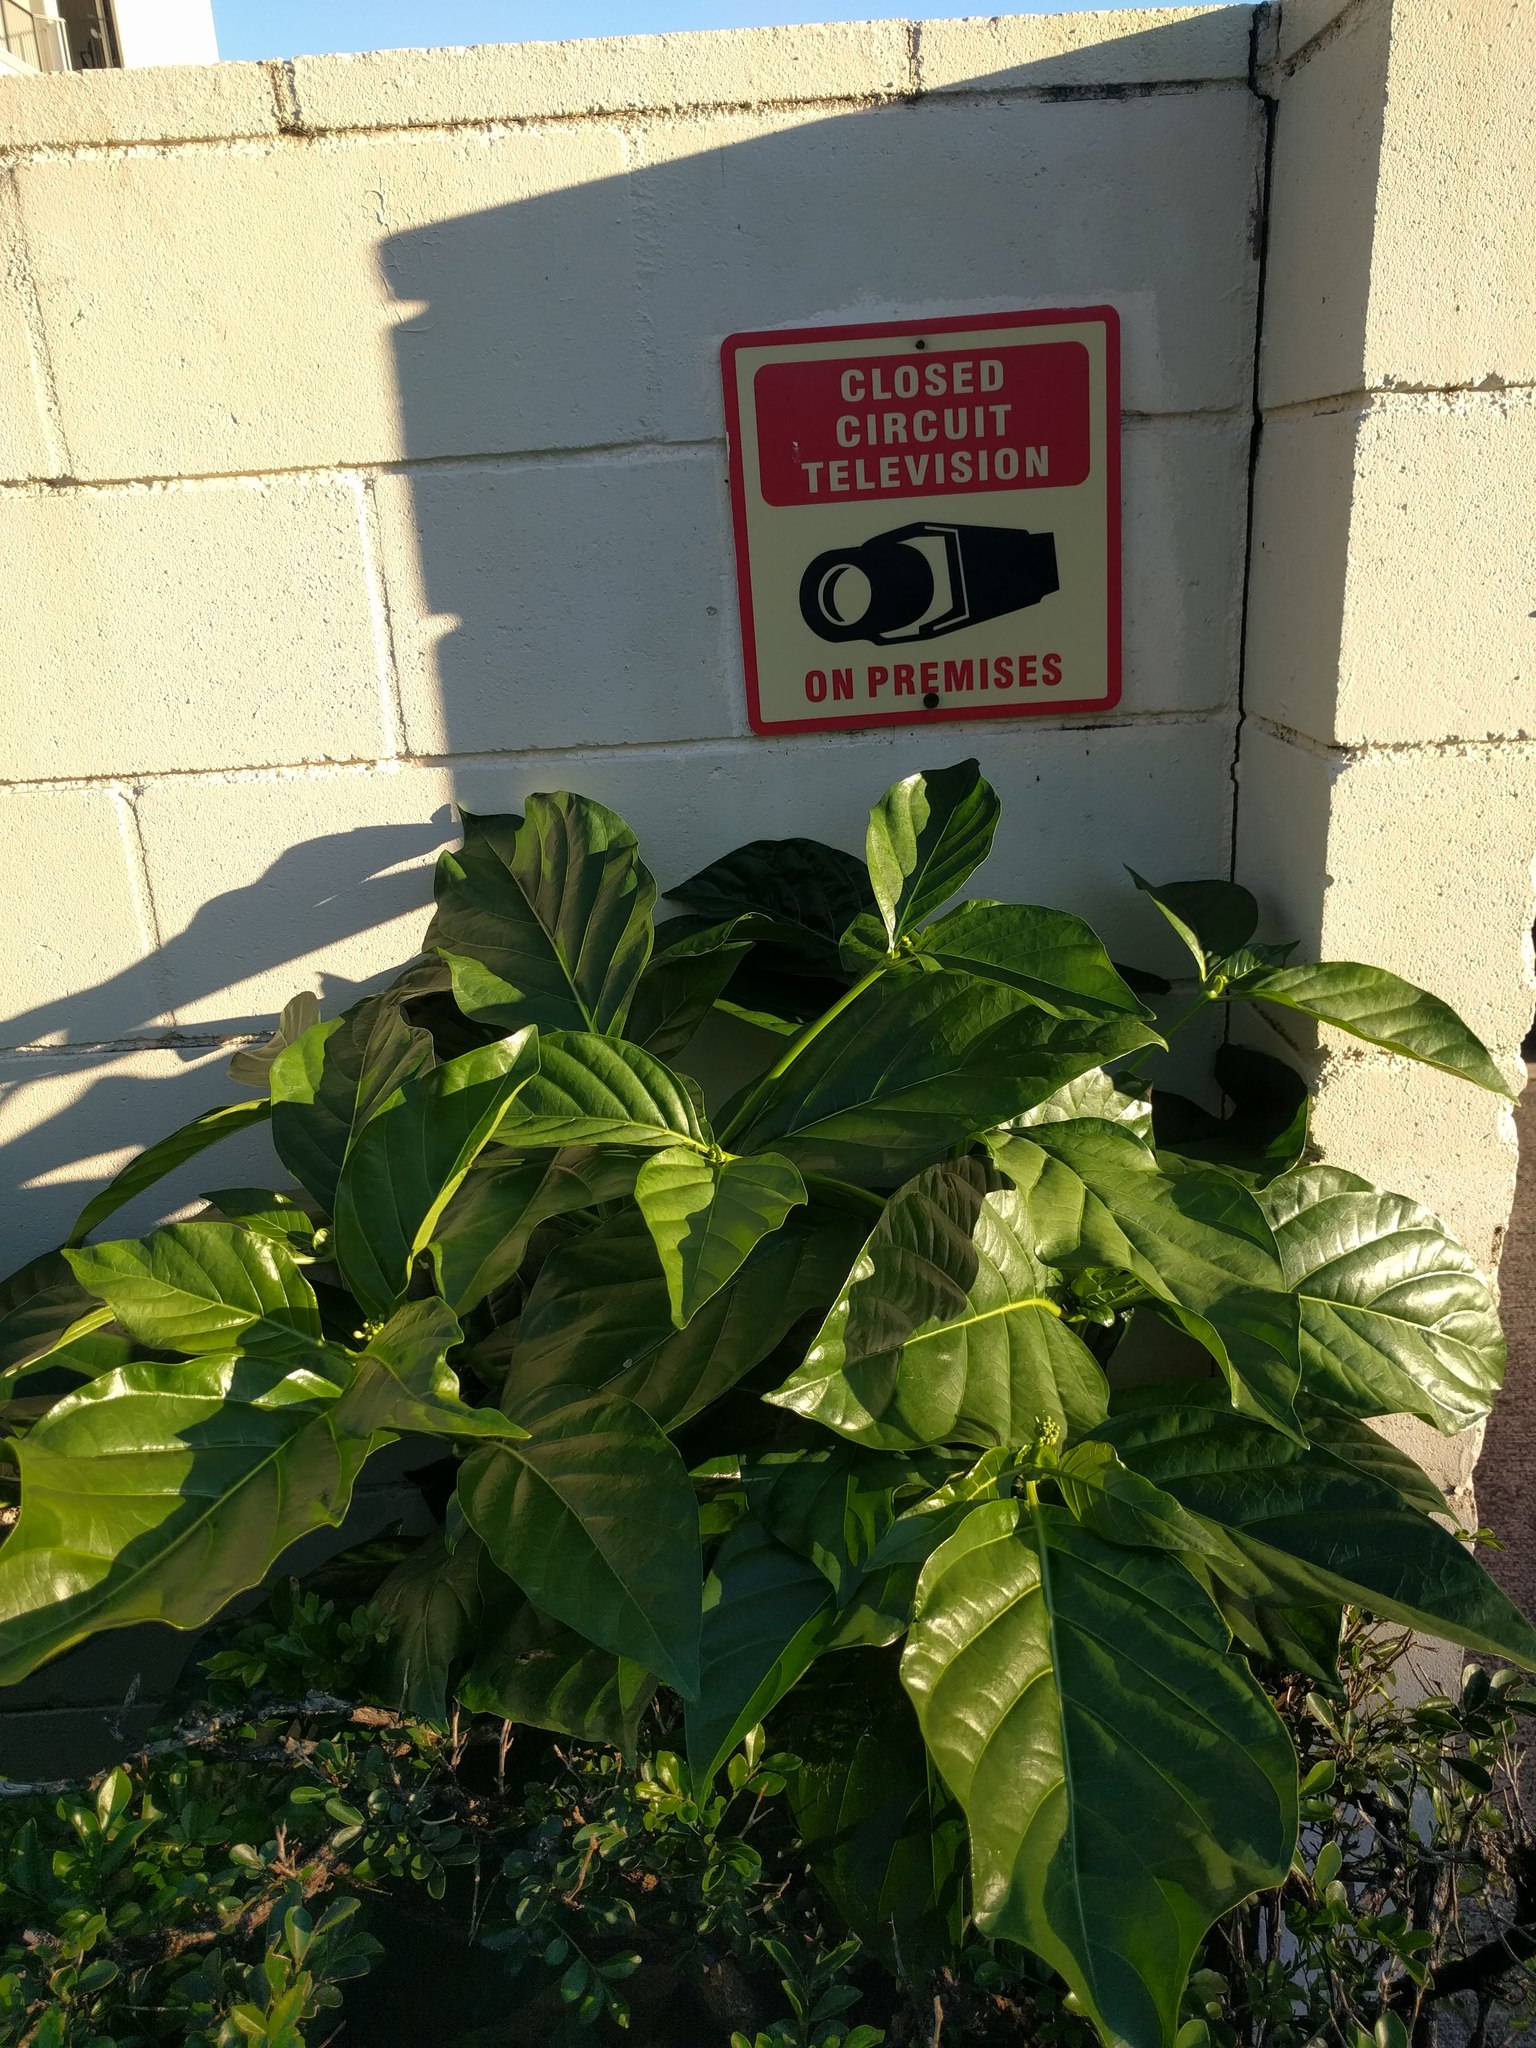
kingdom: Plantae
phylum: Tracheophyta
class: Magnoliopsida
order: Gentianales
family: Rubiaceae
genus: Morinda
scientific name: Morinda citrifolia
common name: Indian-mulberry
